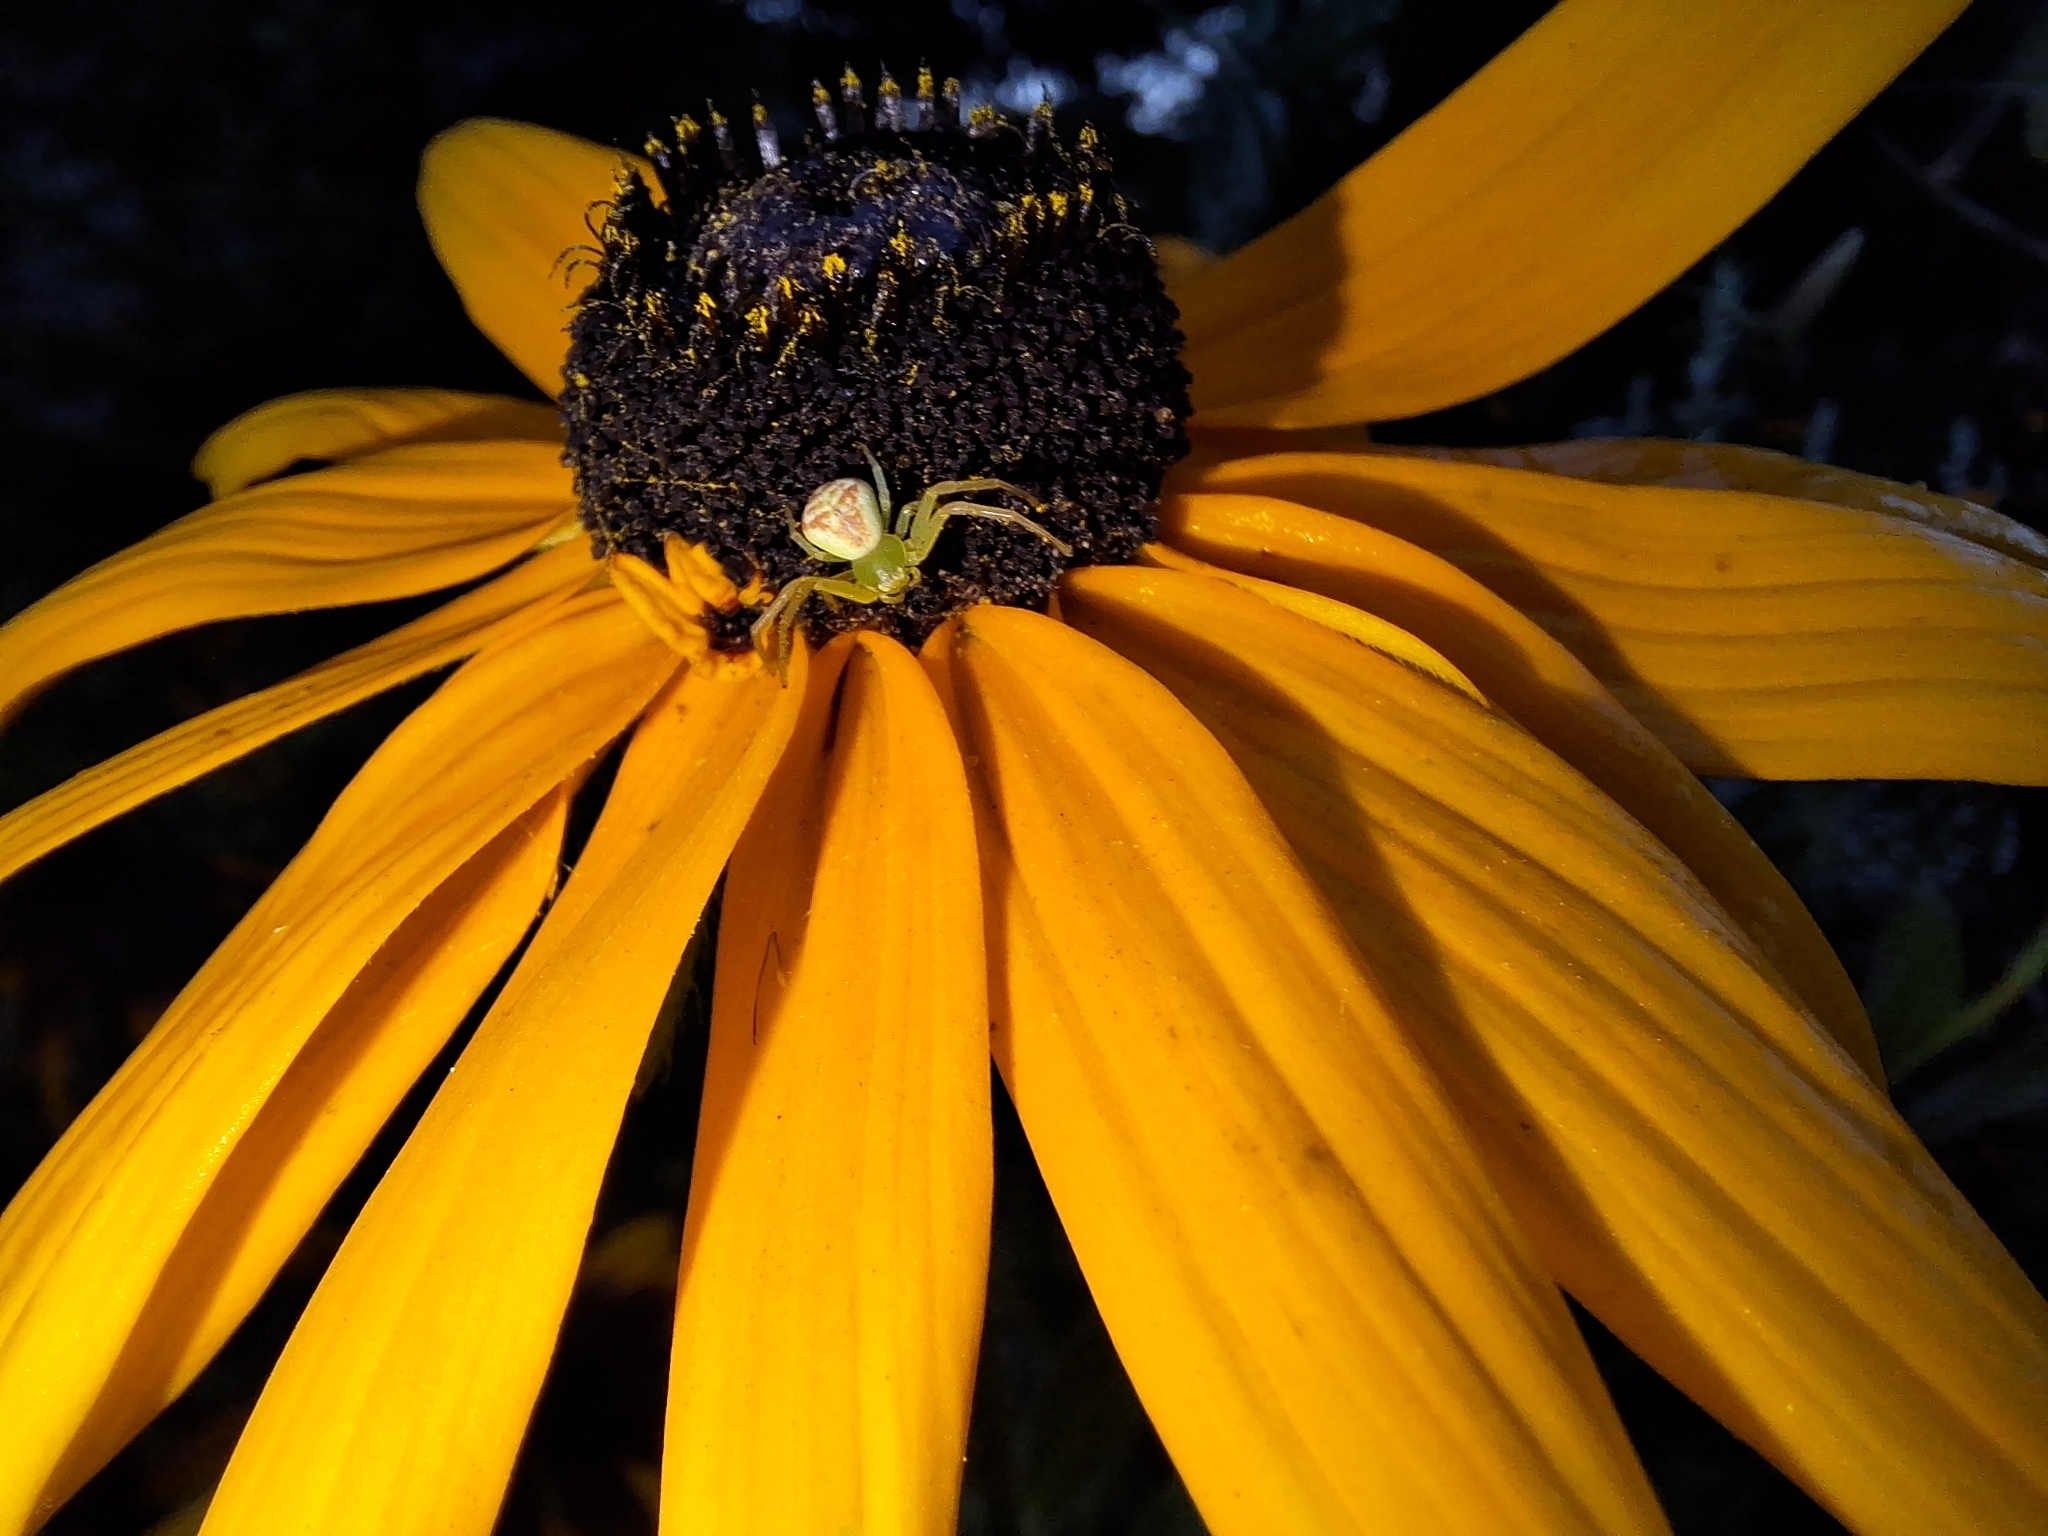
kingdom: Animalia
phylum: Arthropoda
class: Arachnida
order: Araneae
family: Thomisidae
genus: Ebrechtella
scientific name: Ebrechtella tricuspidata
